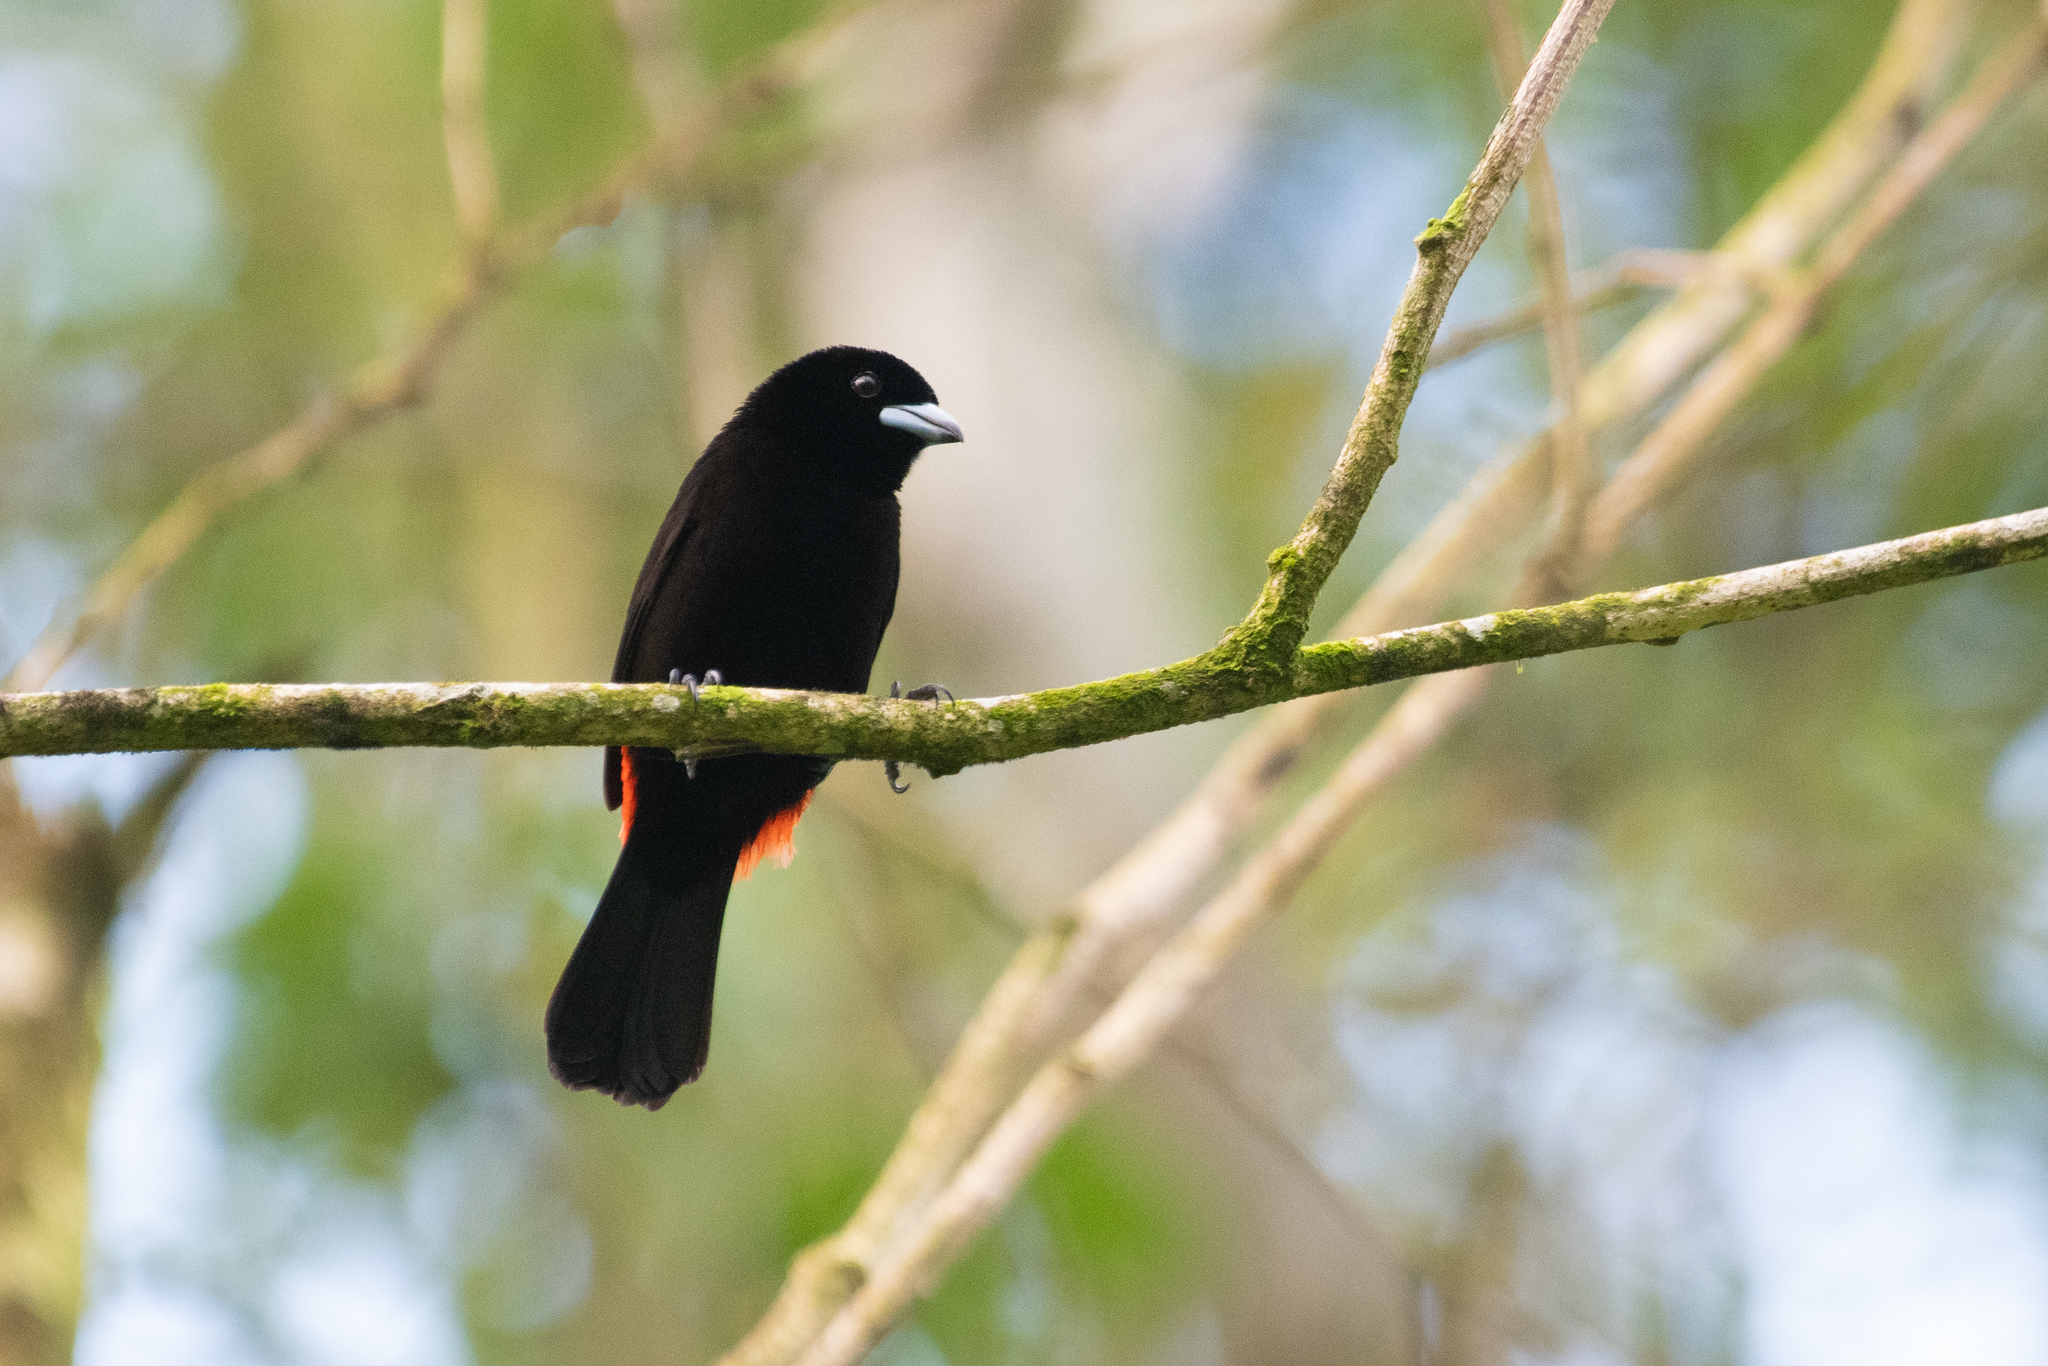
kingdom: Animalia
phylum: Chordata
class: Aves
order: Passeriformes
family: Thraupidae
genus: Ramphocelus
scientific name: Ramphocelus passerinii
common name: Passerini's tanager
